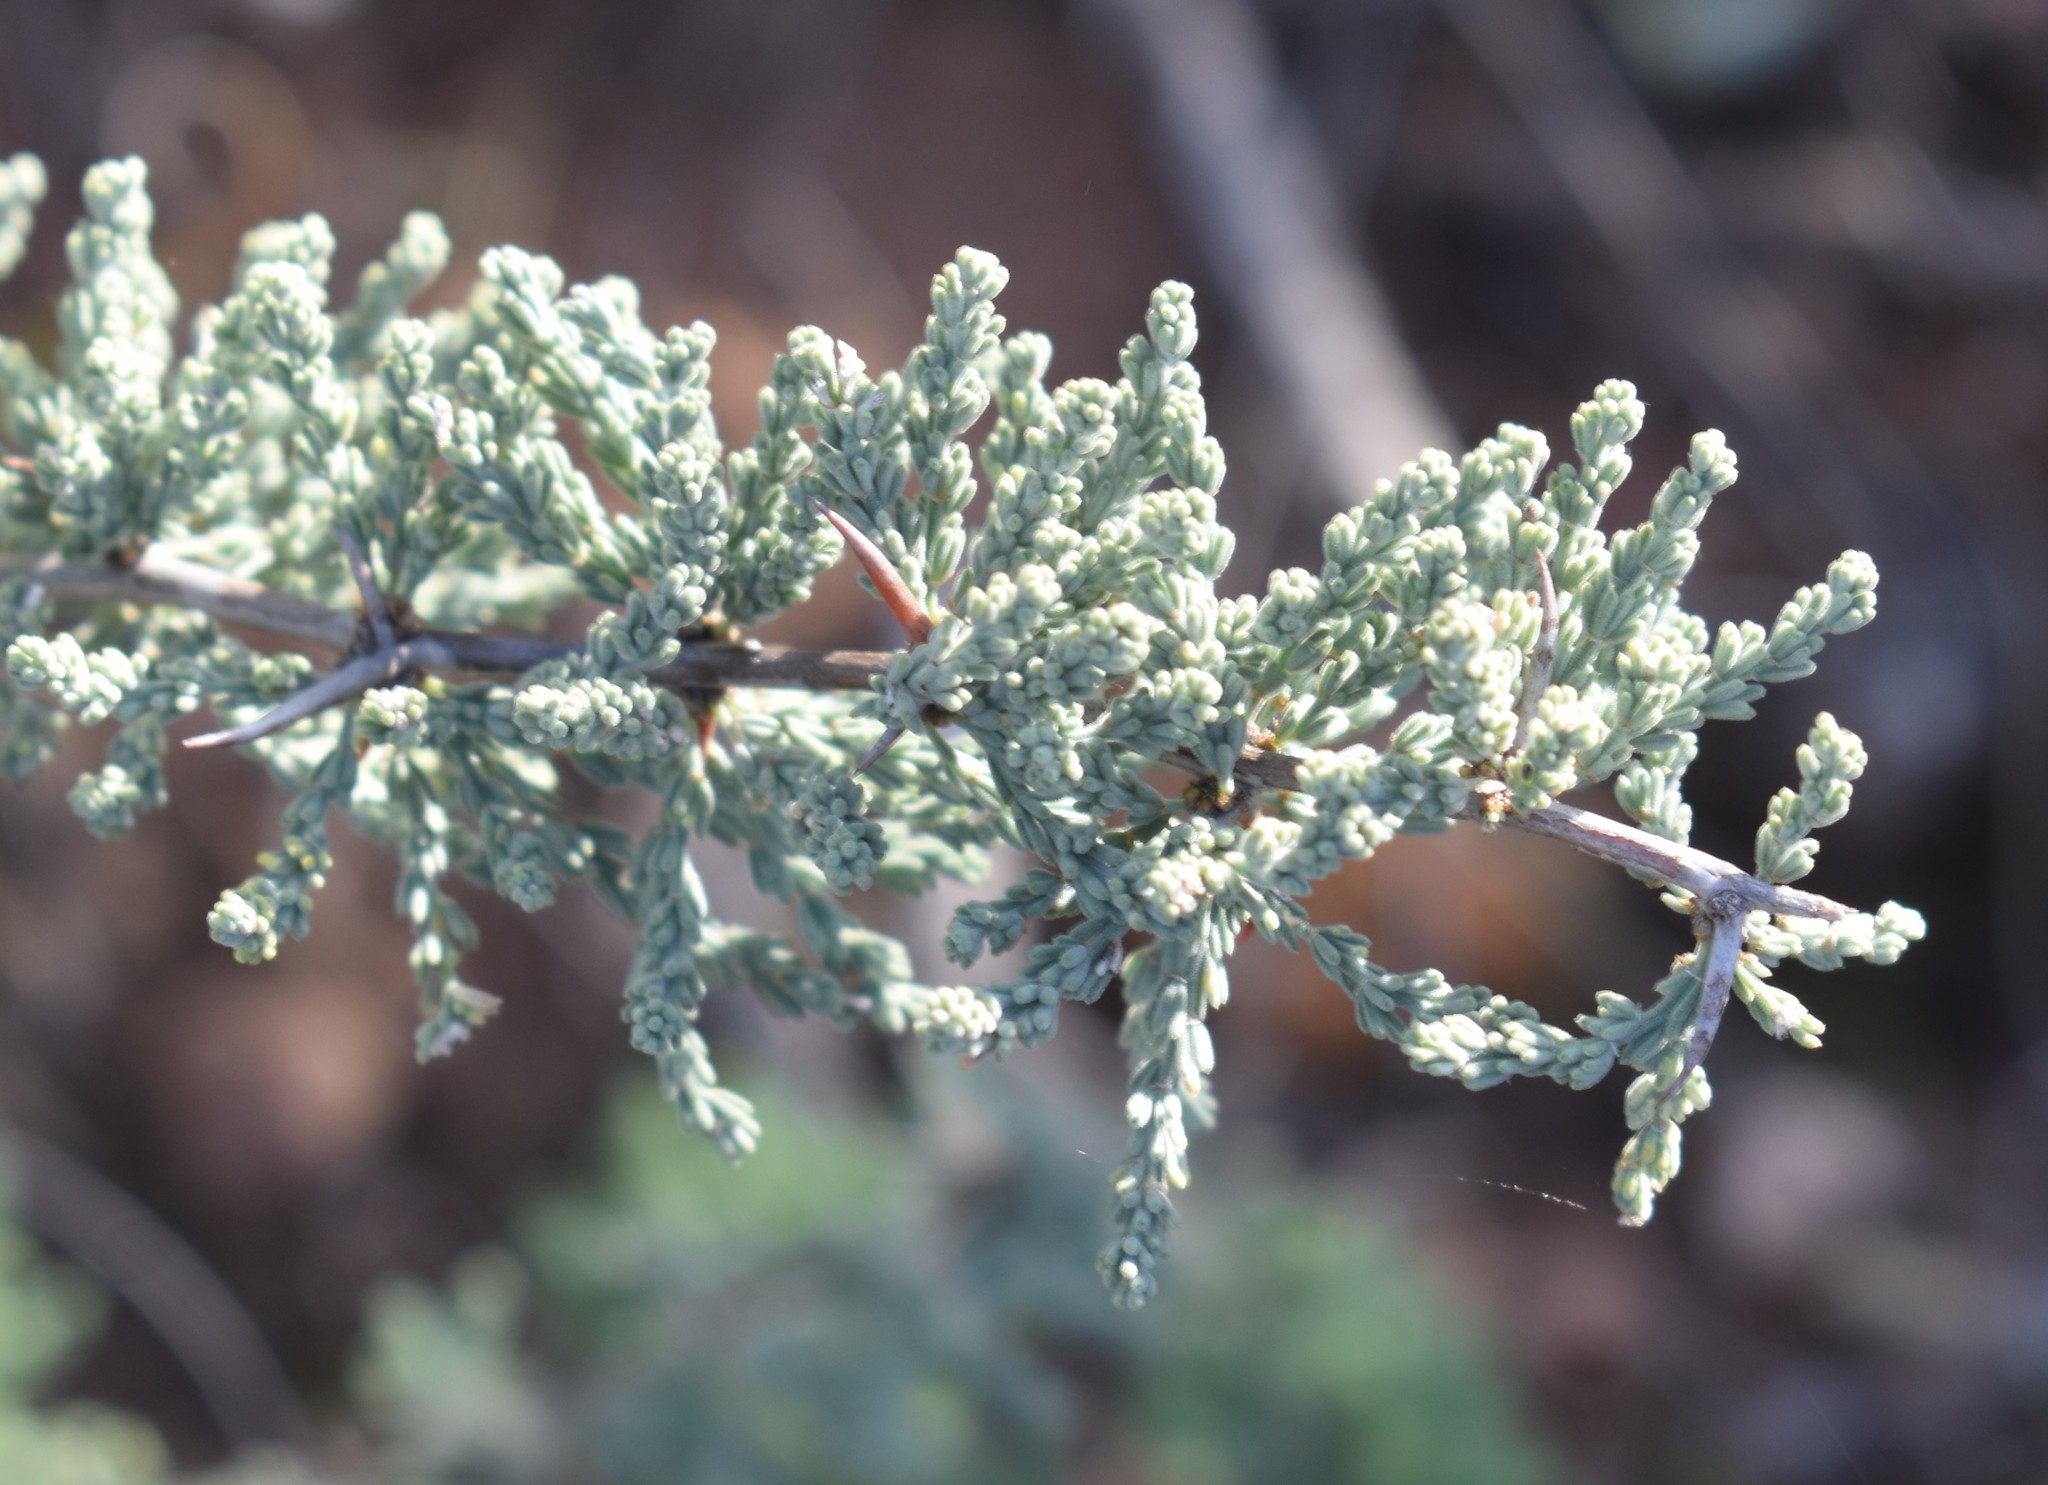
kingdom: Plantae
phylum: Tracheophyta
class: Liliopsida
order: Asparagales
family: Asparagaceae
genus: Asparagus
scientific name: Asparagus capensis
